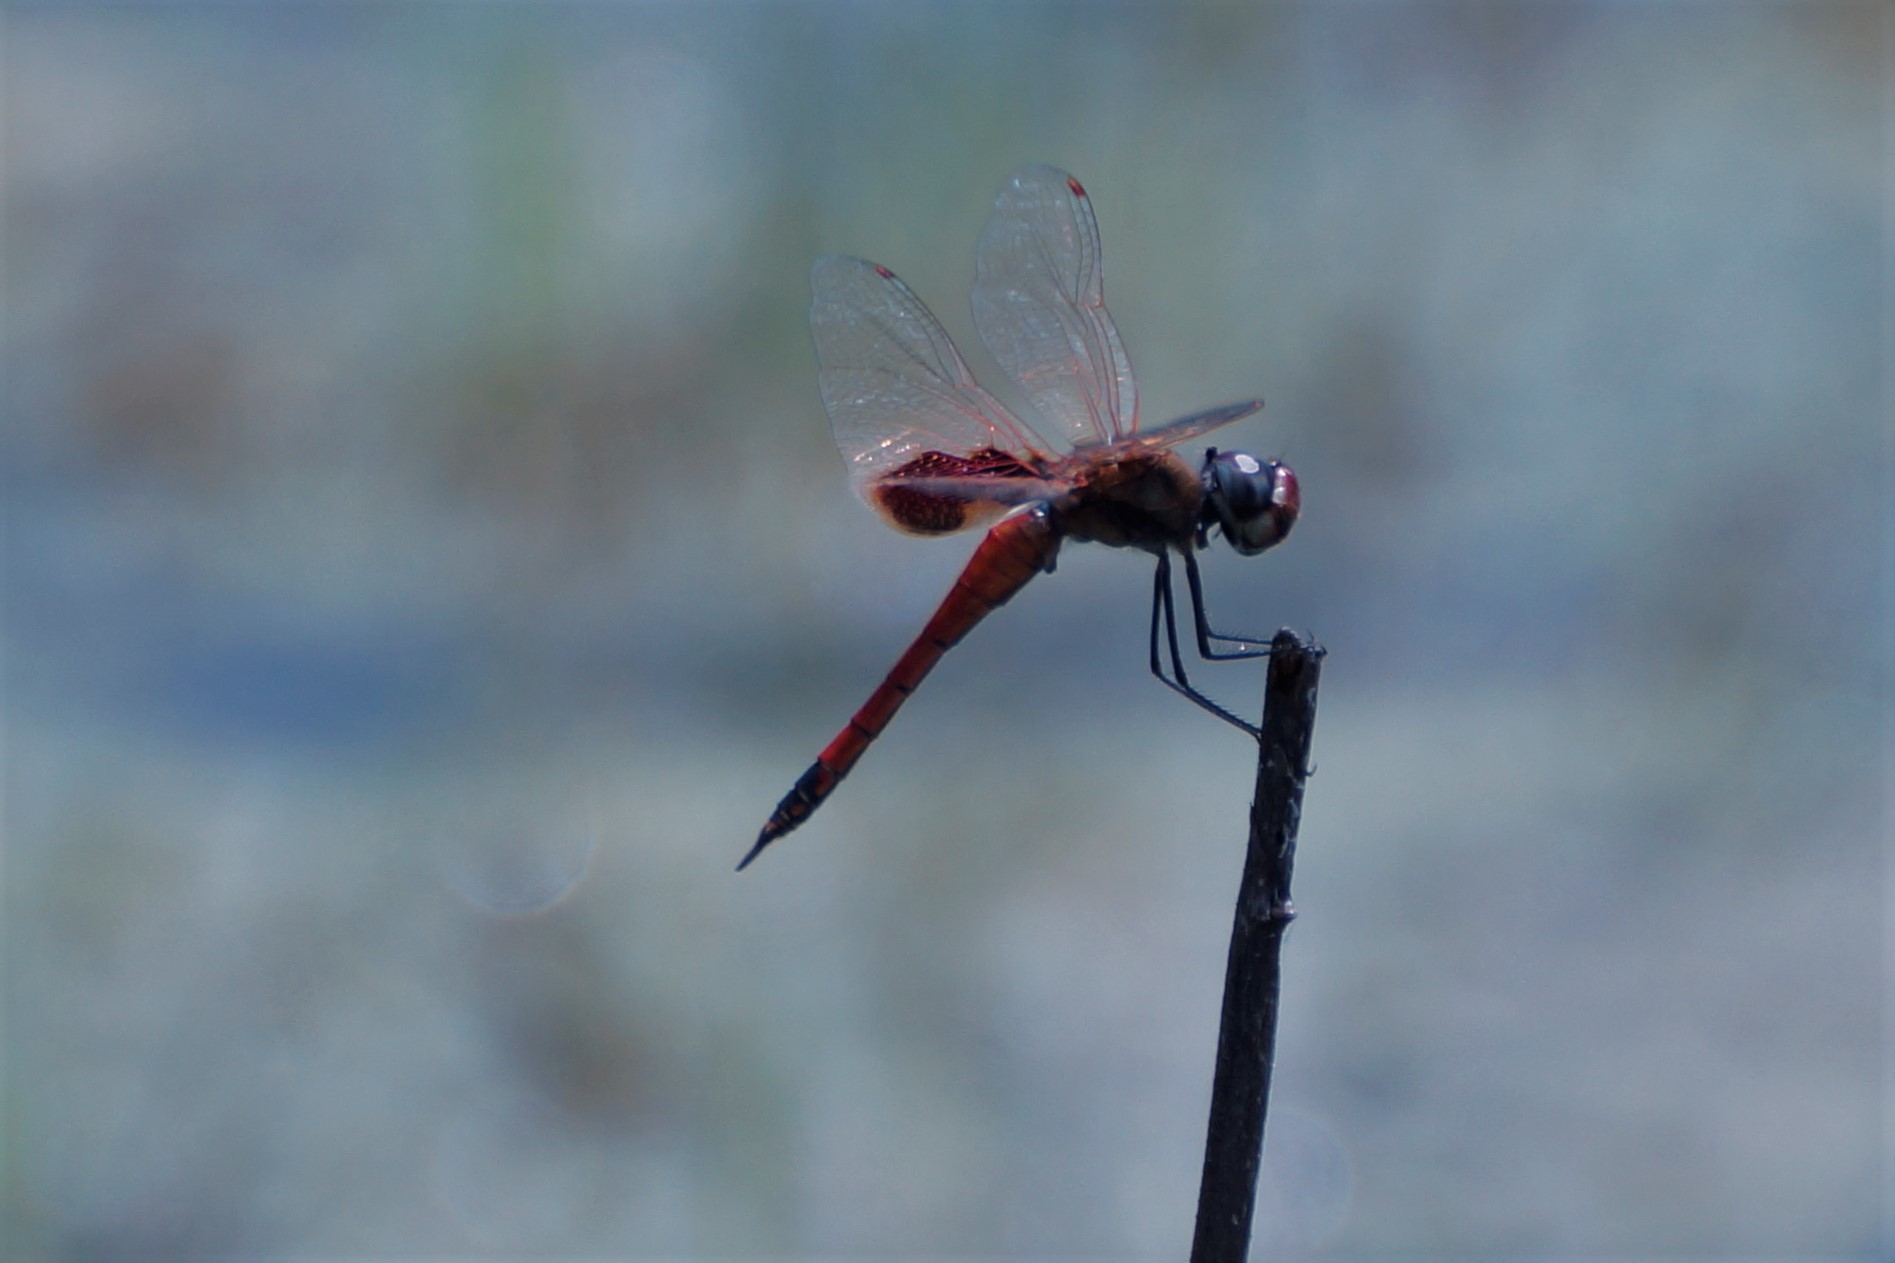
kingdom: Animalia
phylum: Arthropoda
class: Insecta
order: Odonata
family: Libellulidae
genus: Tramea
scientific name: Tramea loewii
